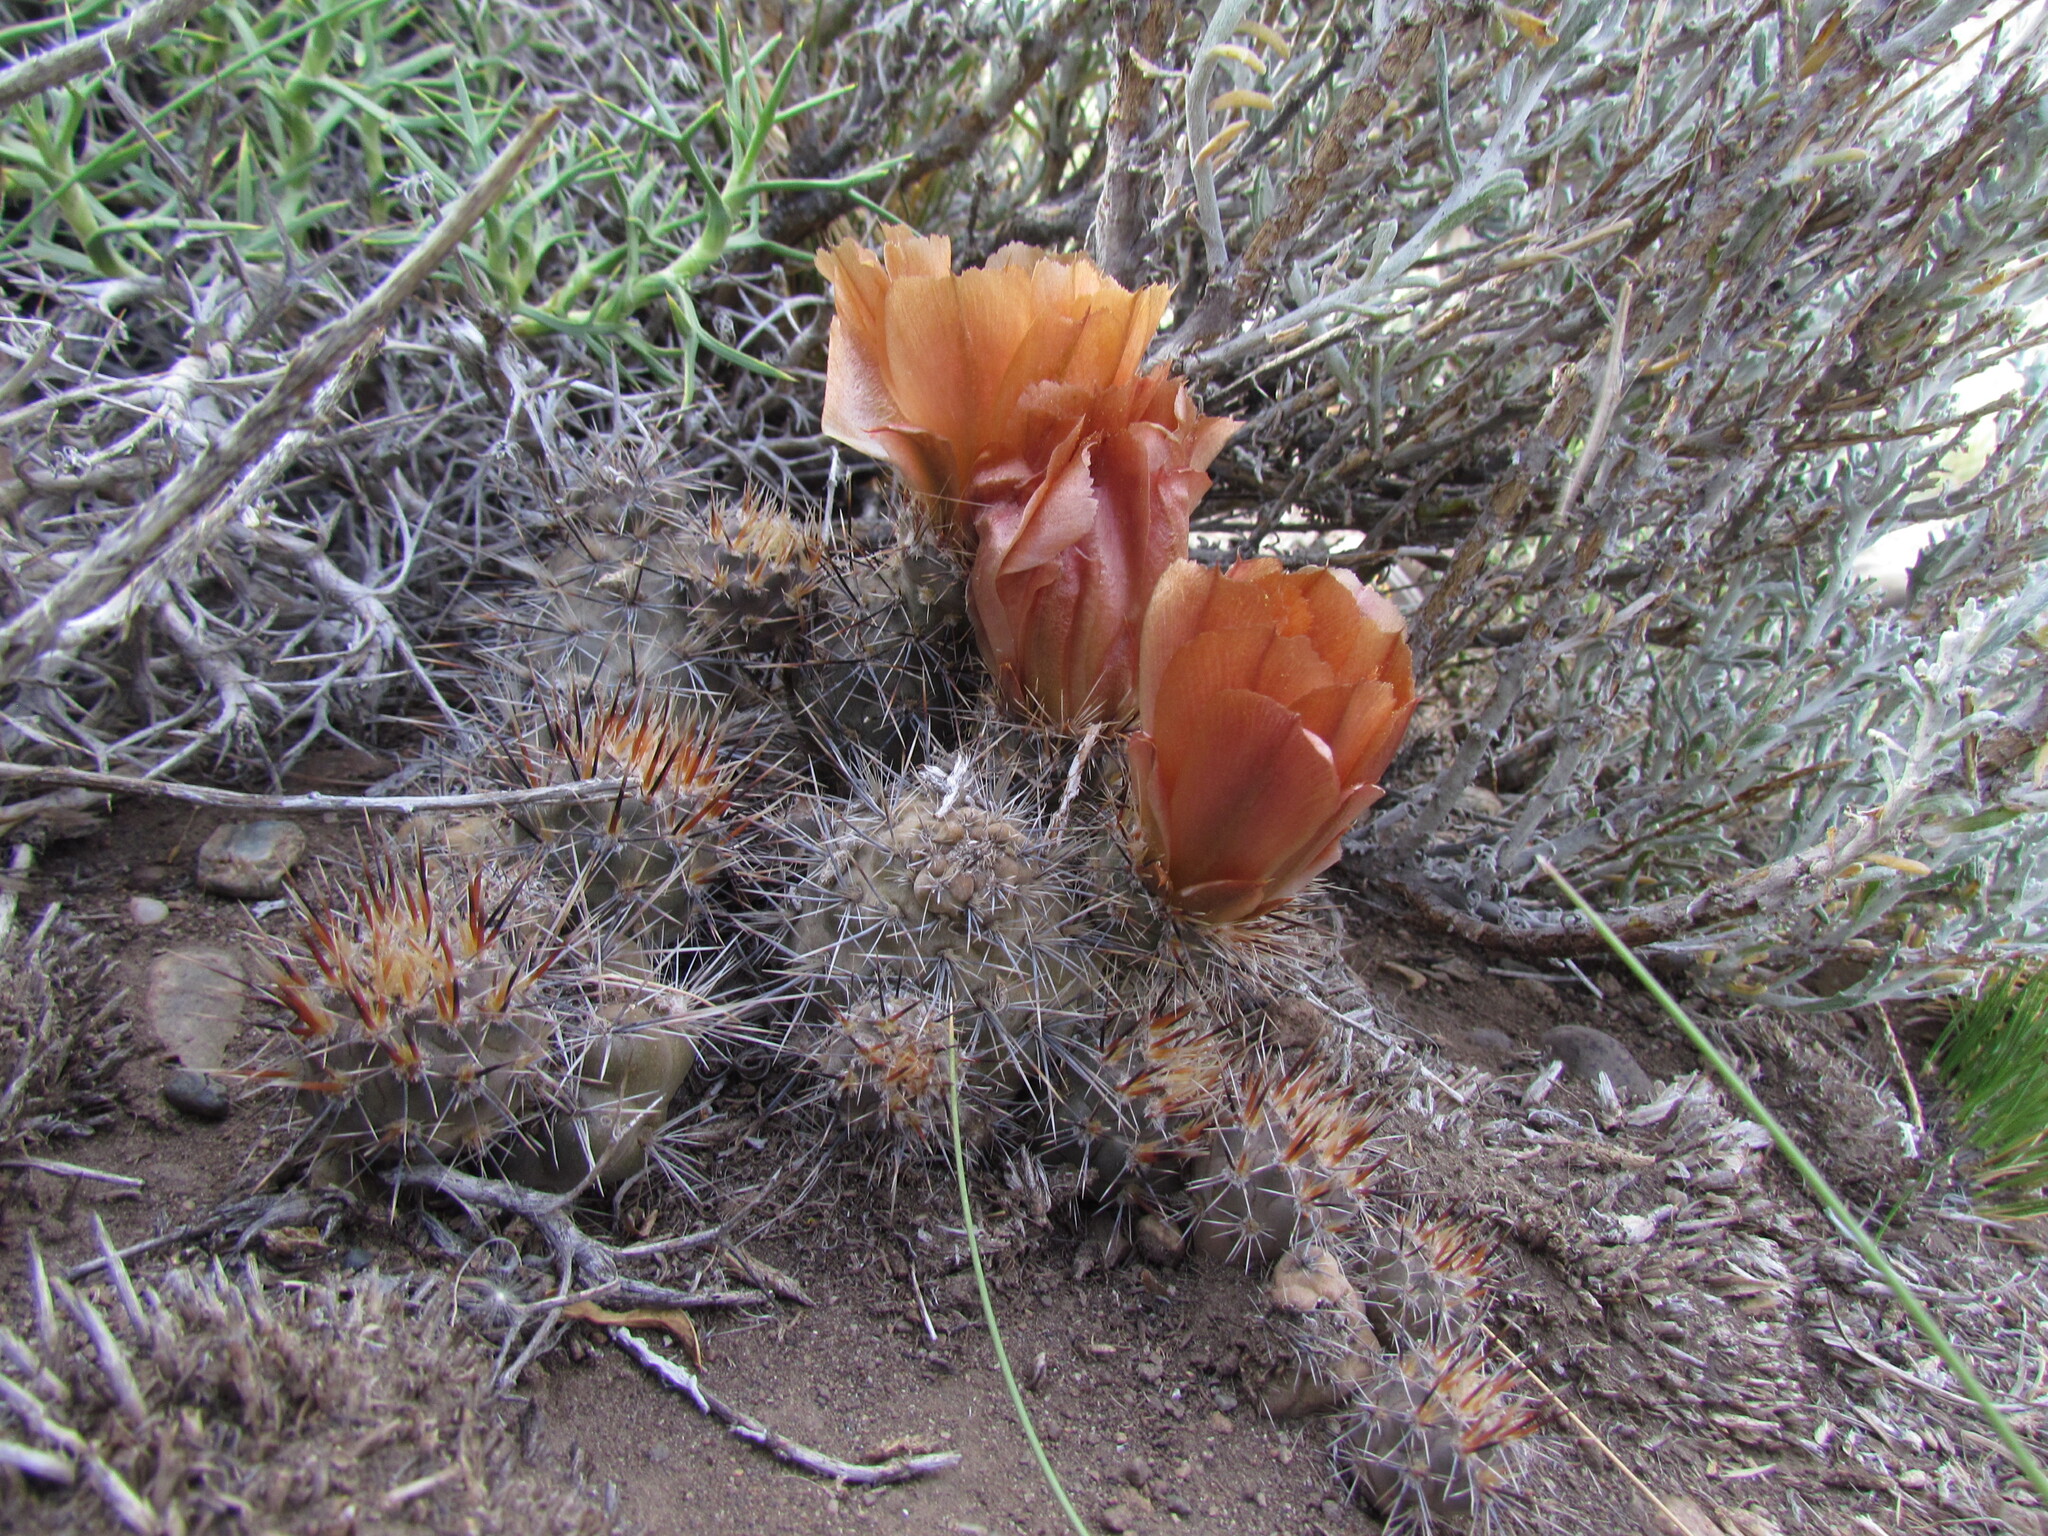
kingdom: Plantae
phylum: Tracheophyta
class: Magnoliopsida
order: Caryophyllales
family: Cactaceae
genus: Pterocactus
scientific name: Pterocactus hickenii
